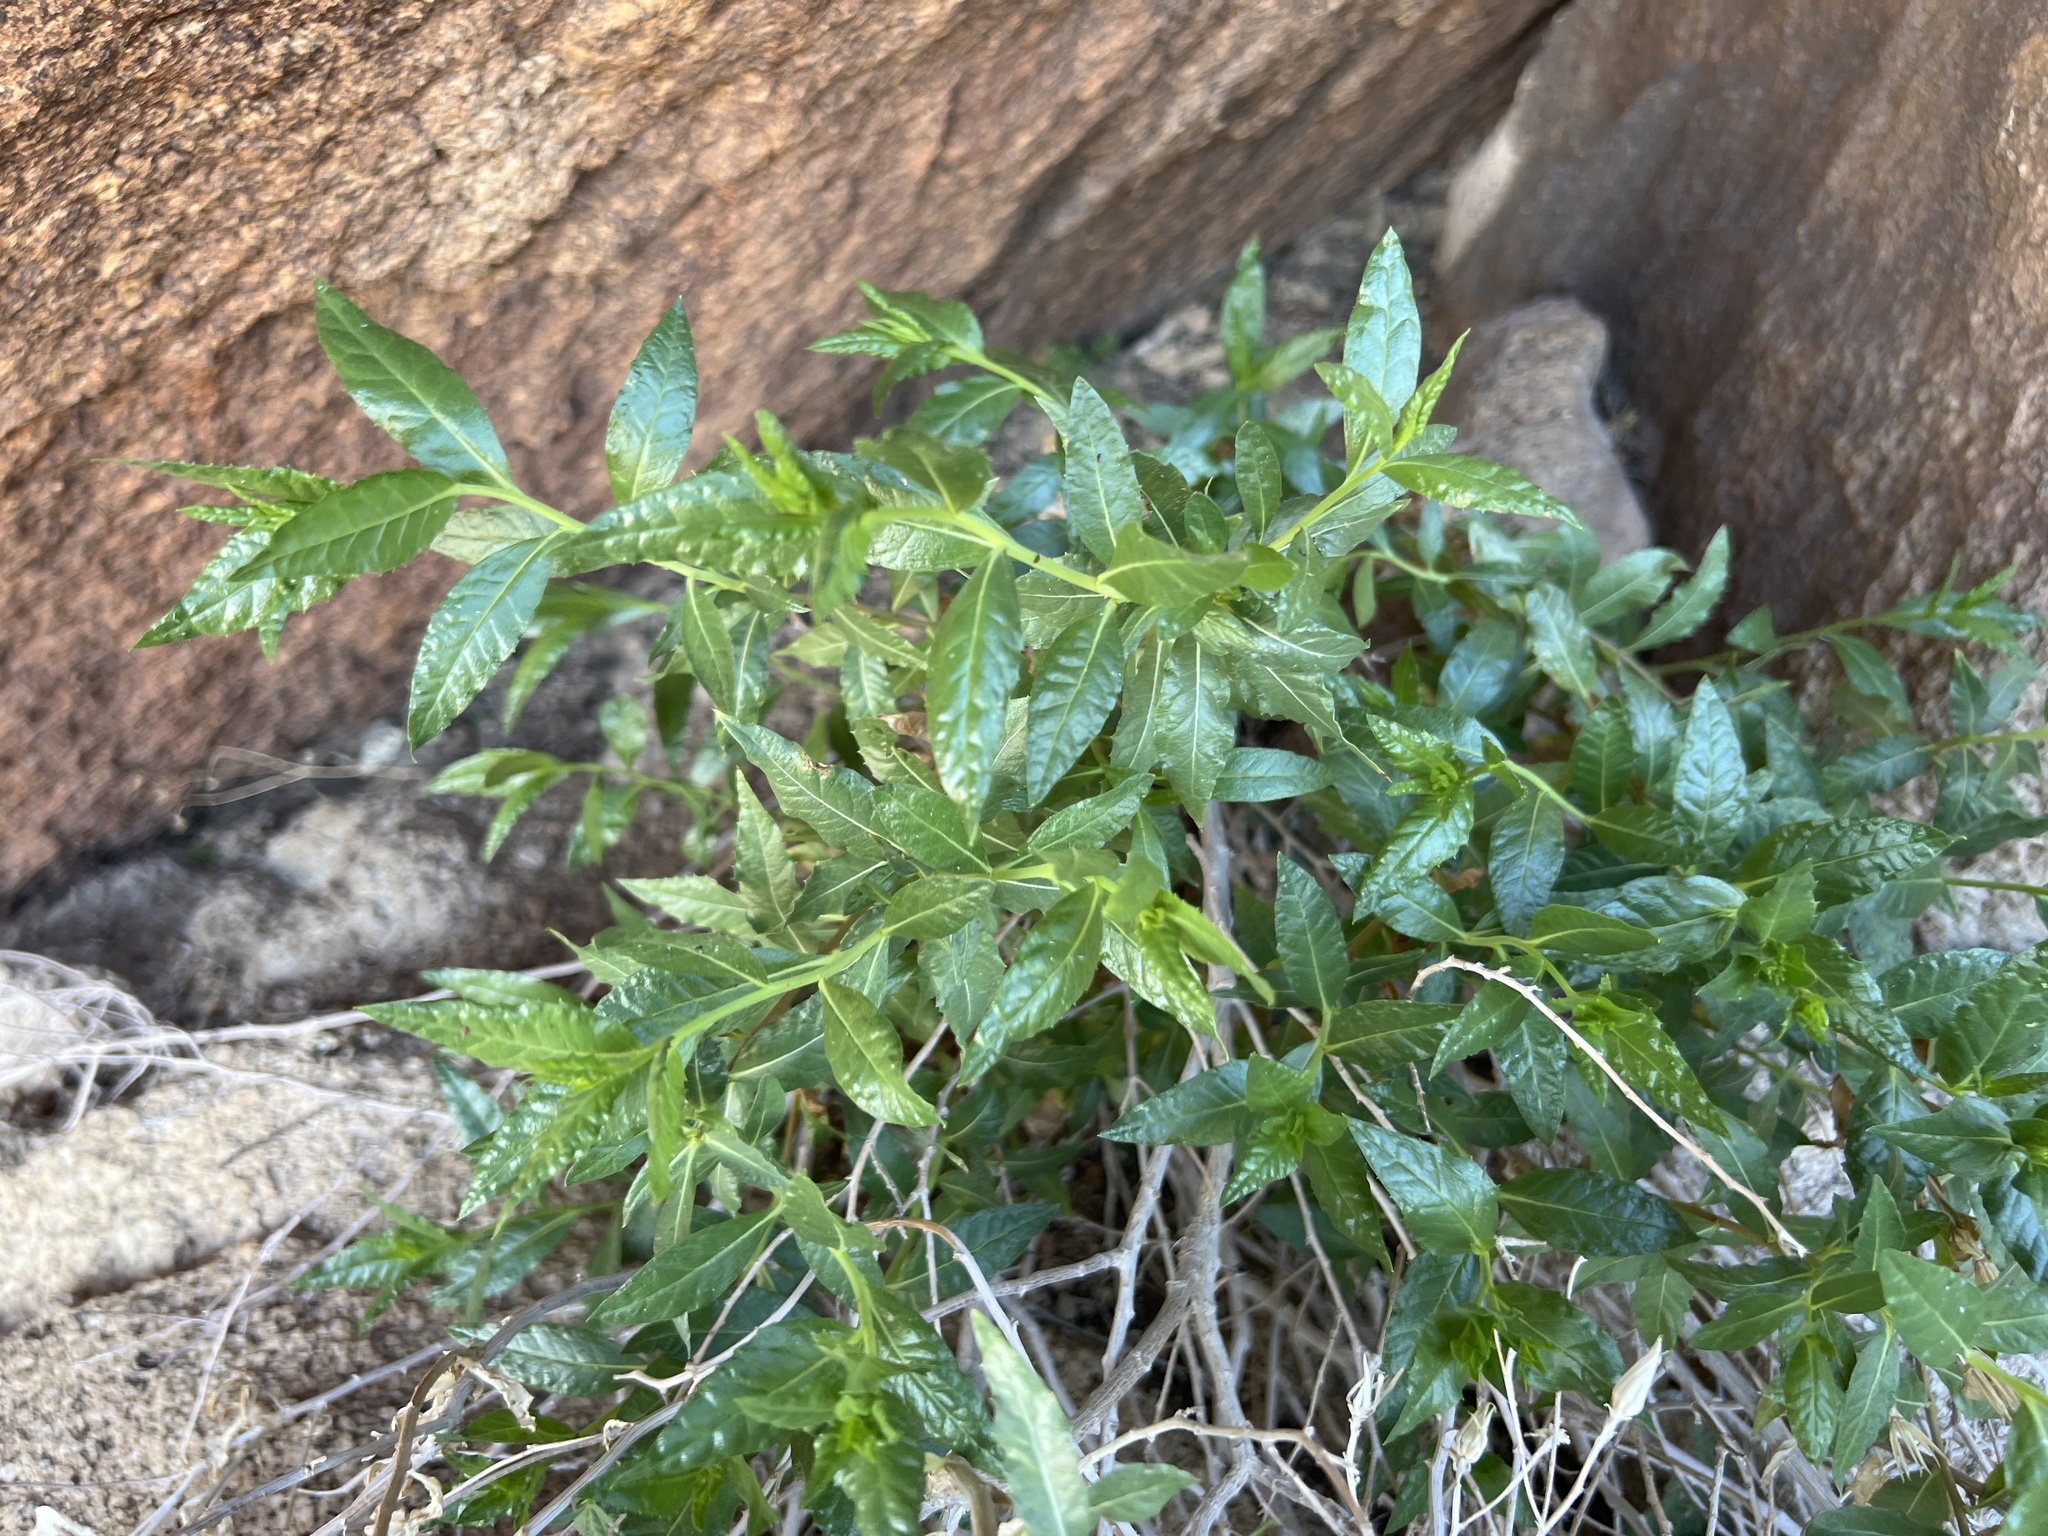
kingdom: Plantae
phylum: Tracheophyta
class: Magnoliopsida
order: Asterales
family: Asteraceae
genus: Trixis
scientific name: Trixis californica
